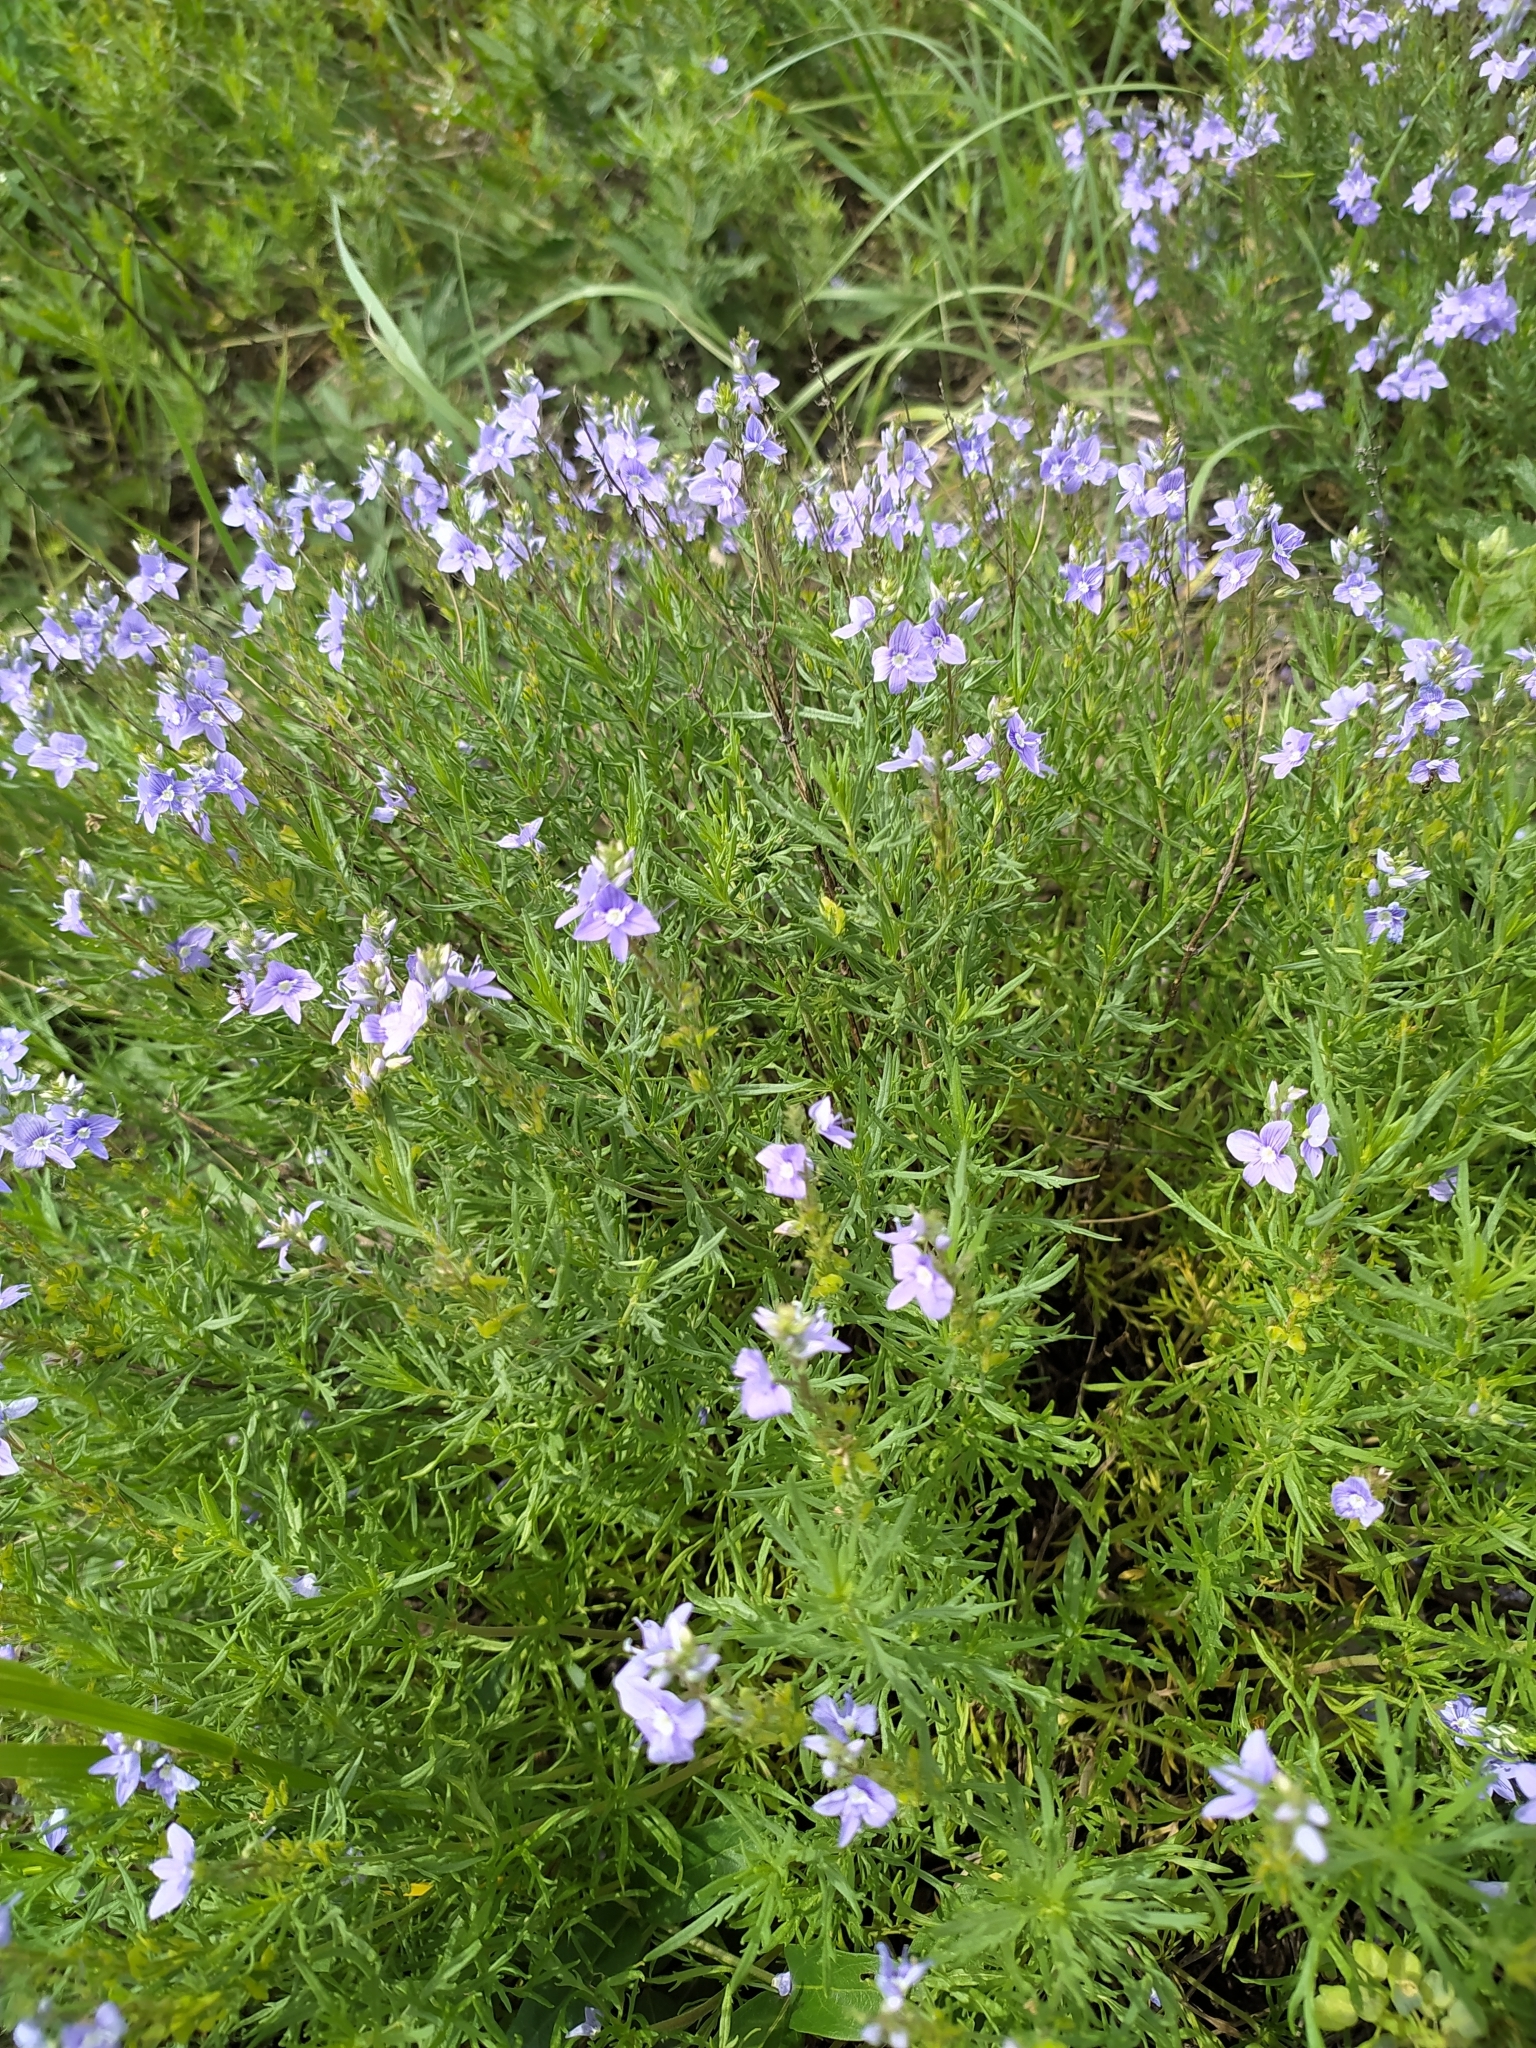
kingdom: Plantae
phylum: Tracheophyta
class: Magnoliopsida
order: Lamiales
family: Plantaginaceae
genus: Veronica
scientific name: Veronica austriaca
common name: Large speedwell
